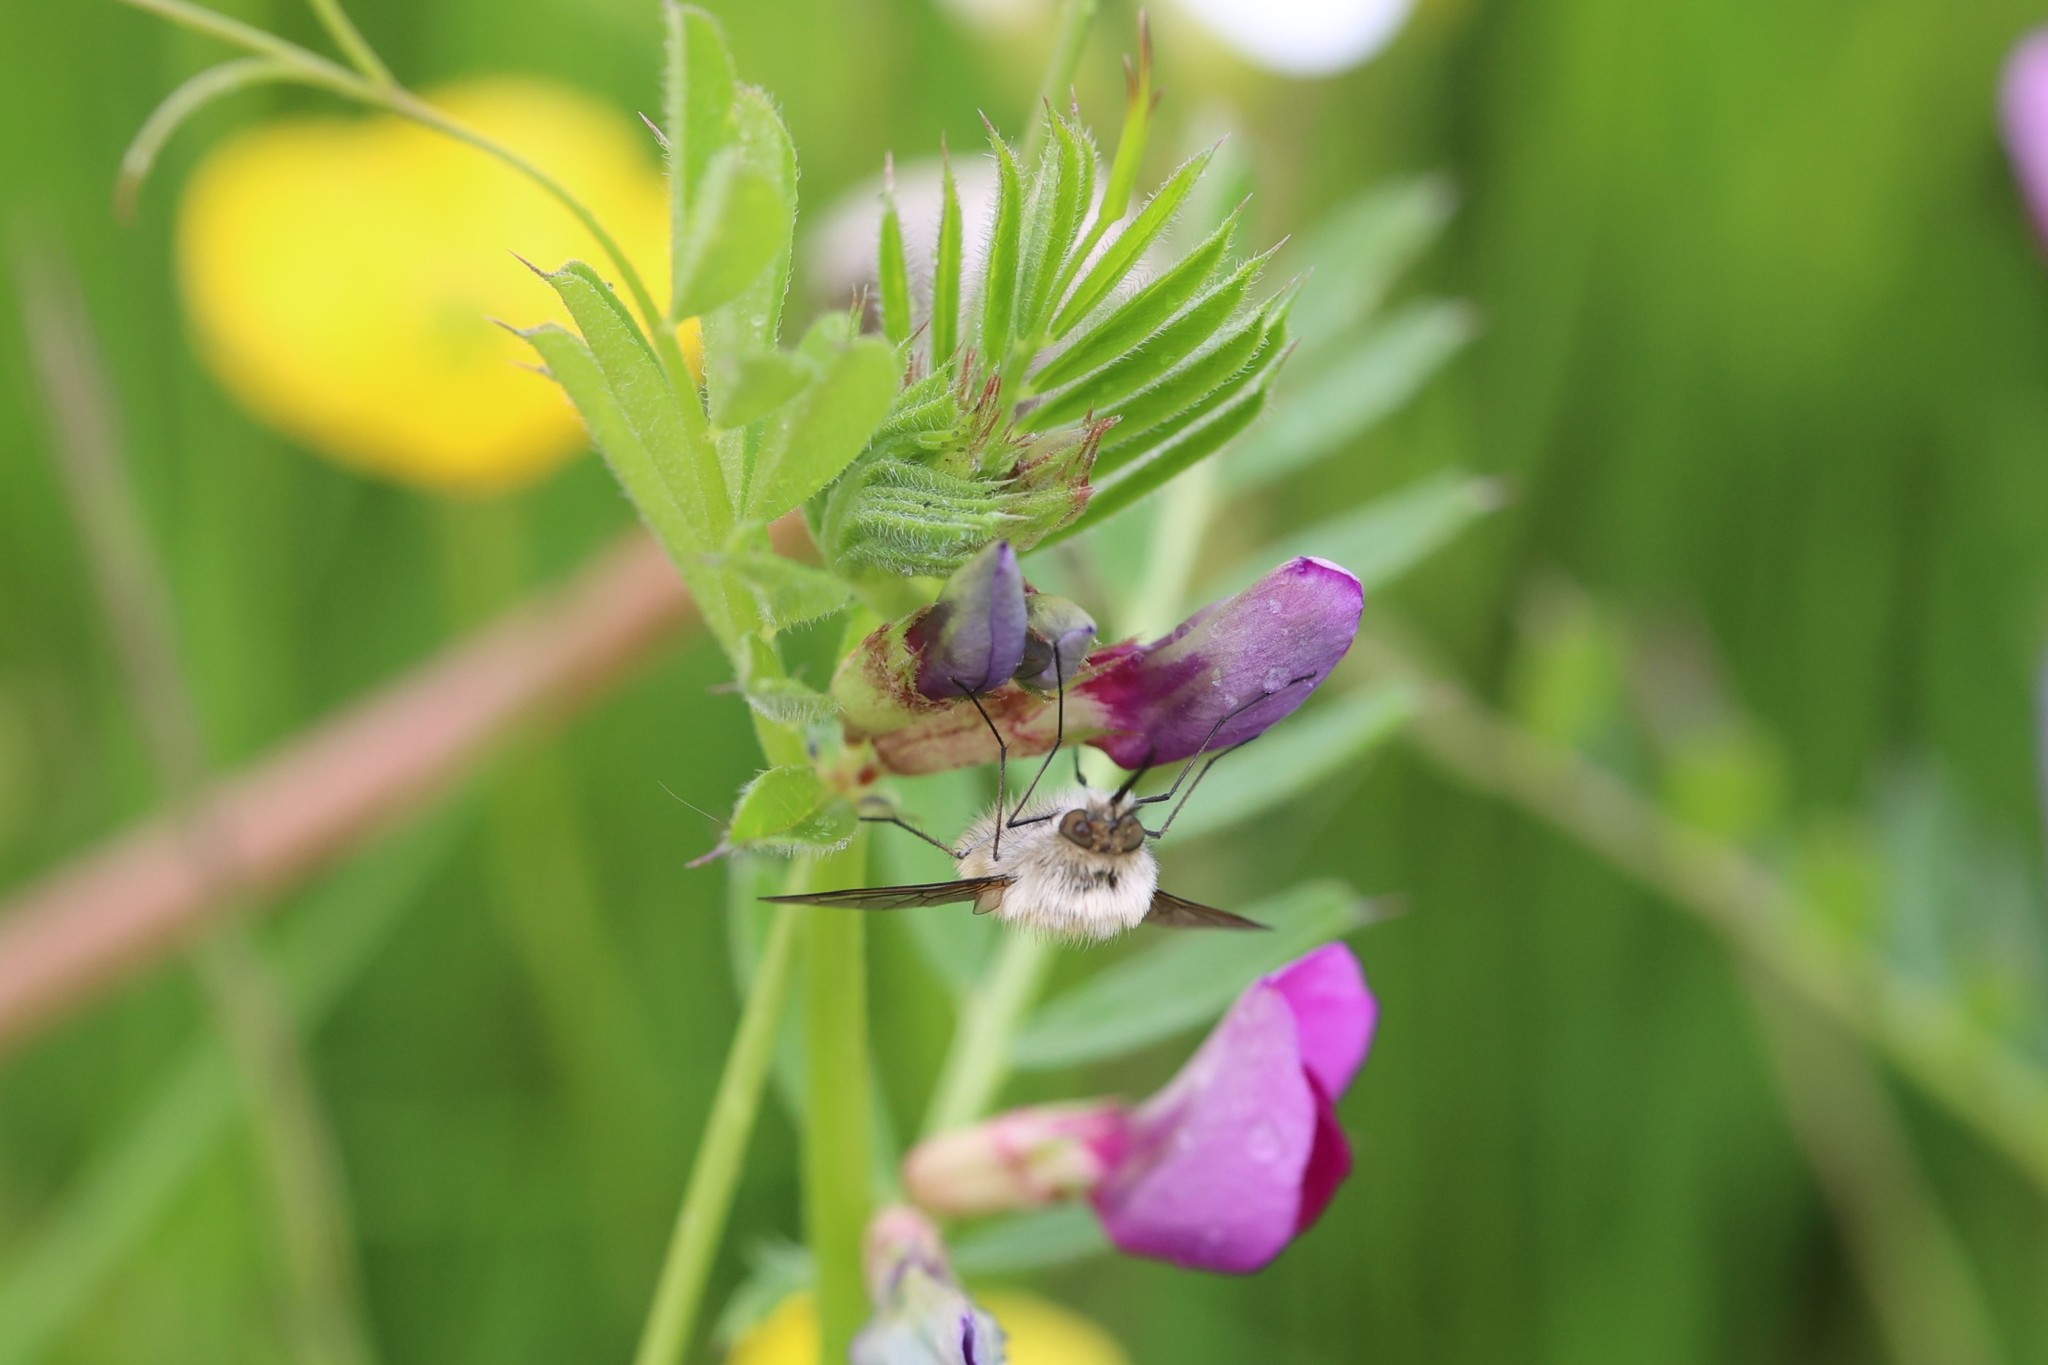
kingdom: Plantae
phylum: Tracheophyta
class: Magnoliopsida
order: Fabales
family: Fabaceae
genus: Vicia
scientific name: Vicia sativa
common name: Garden vetch
